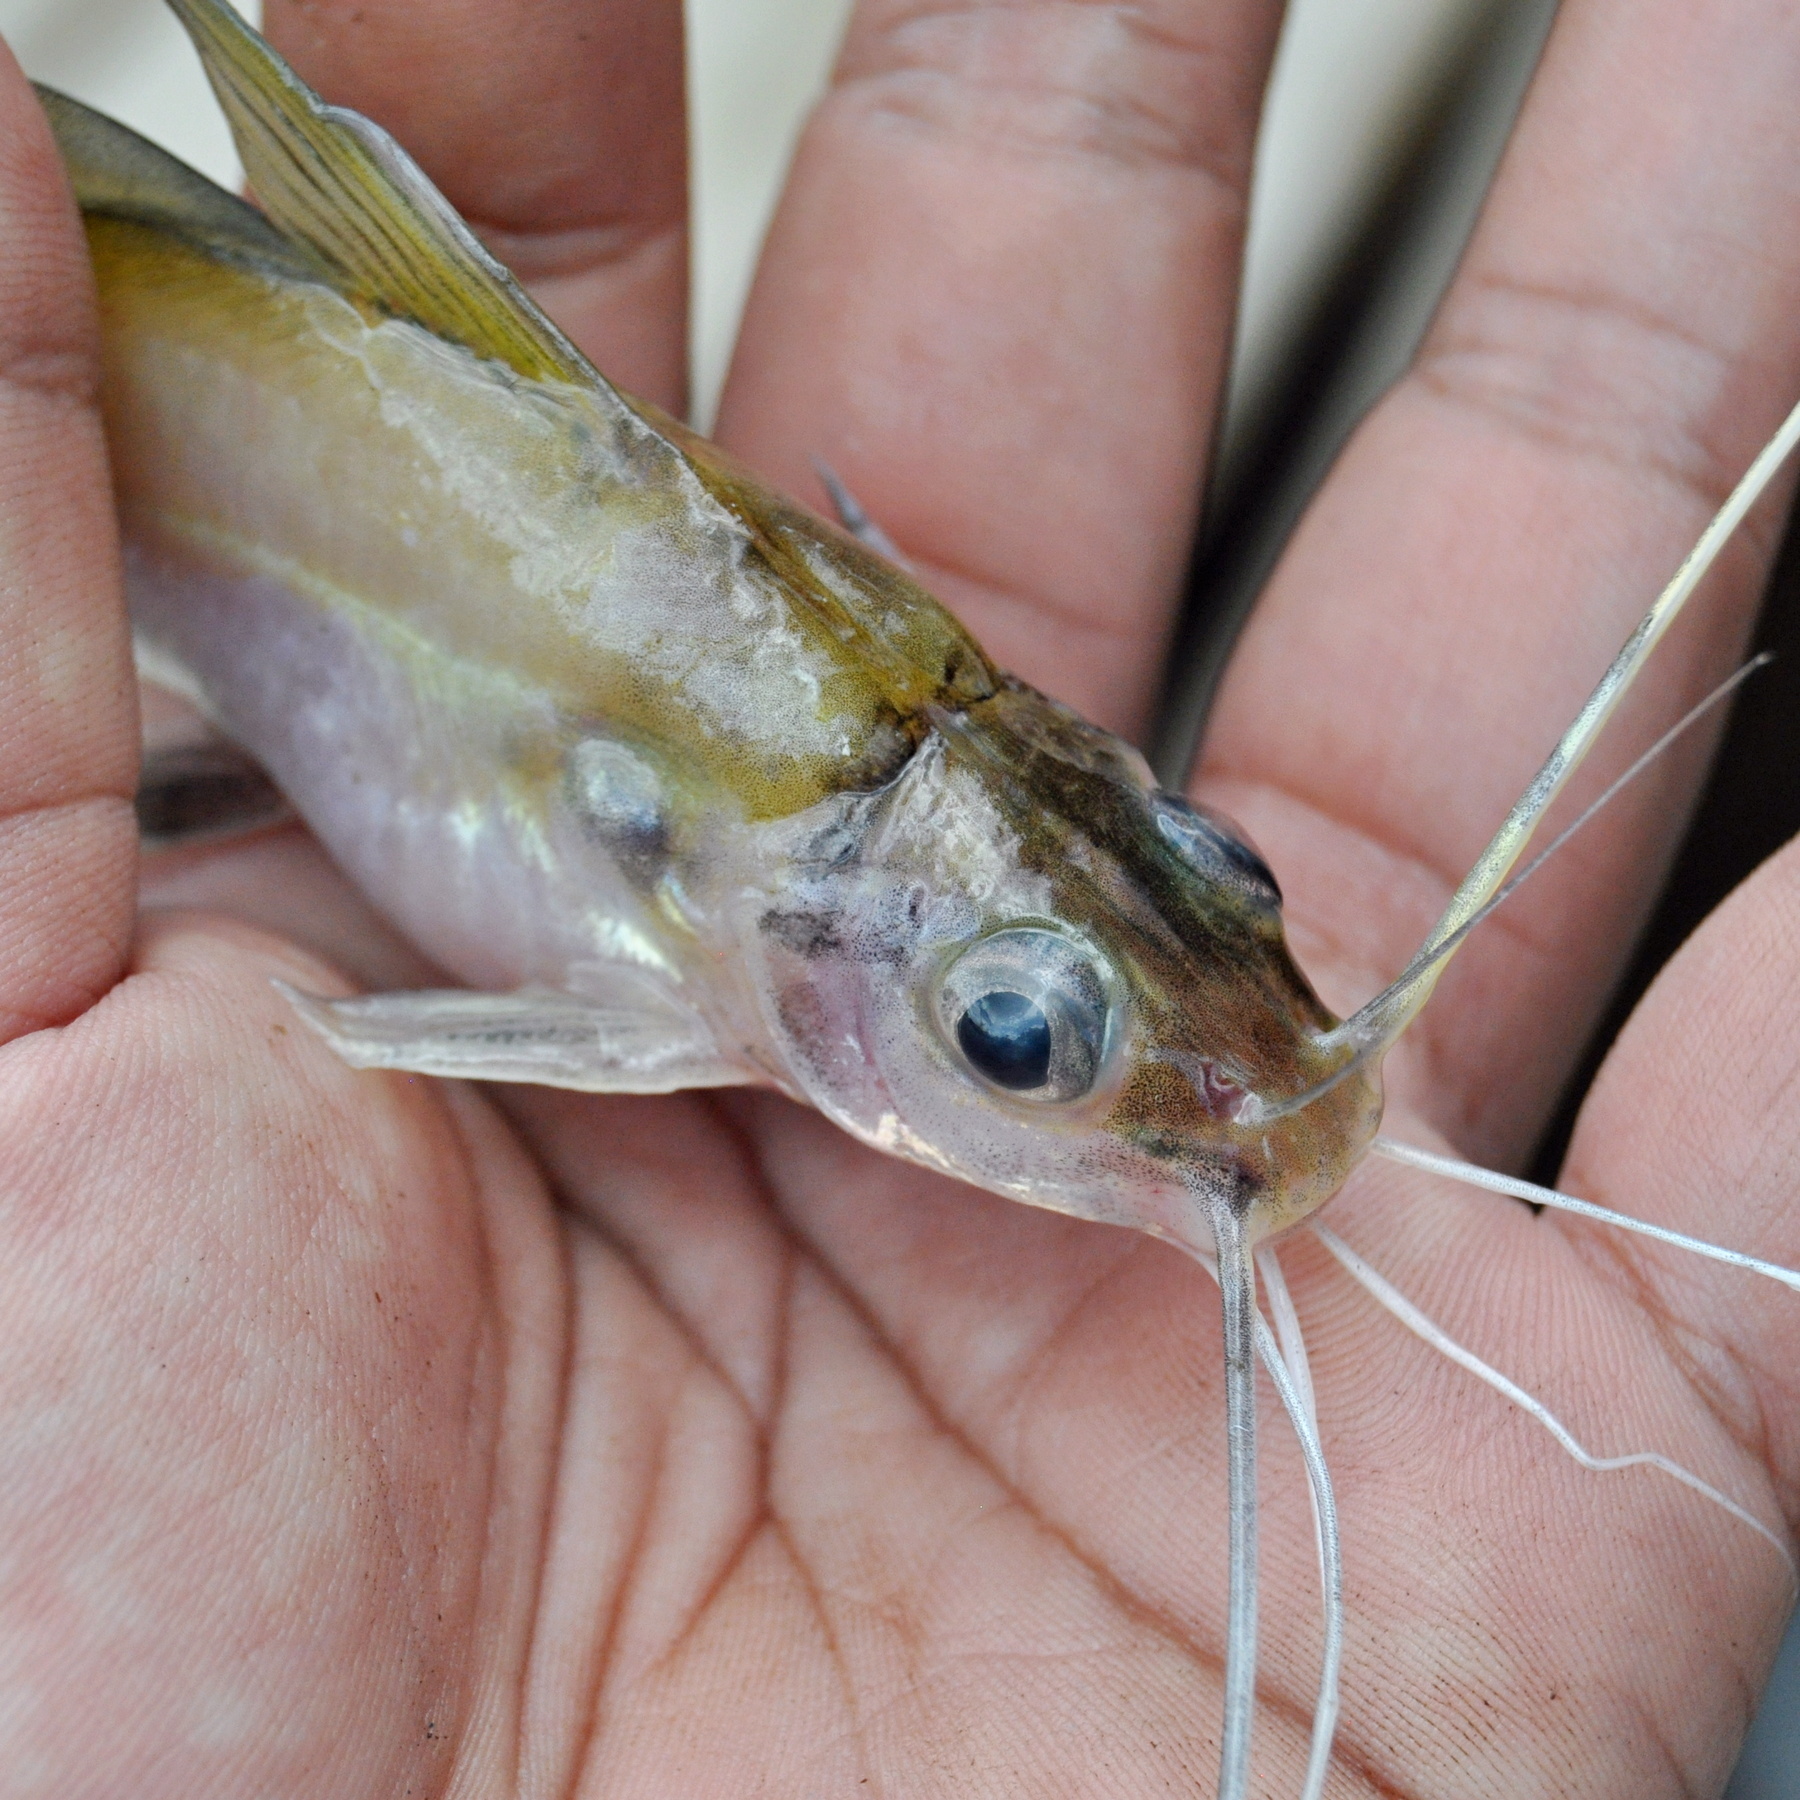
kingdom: Animalia
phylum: Chordata
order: Siluriformes
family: Bagridae
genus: Mystus
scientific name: Mystus singaringan
